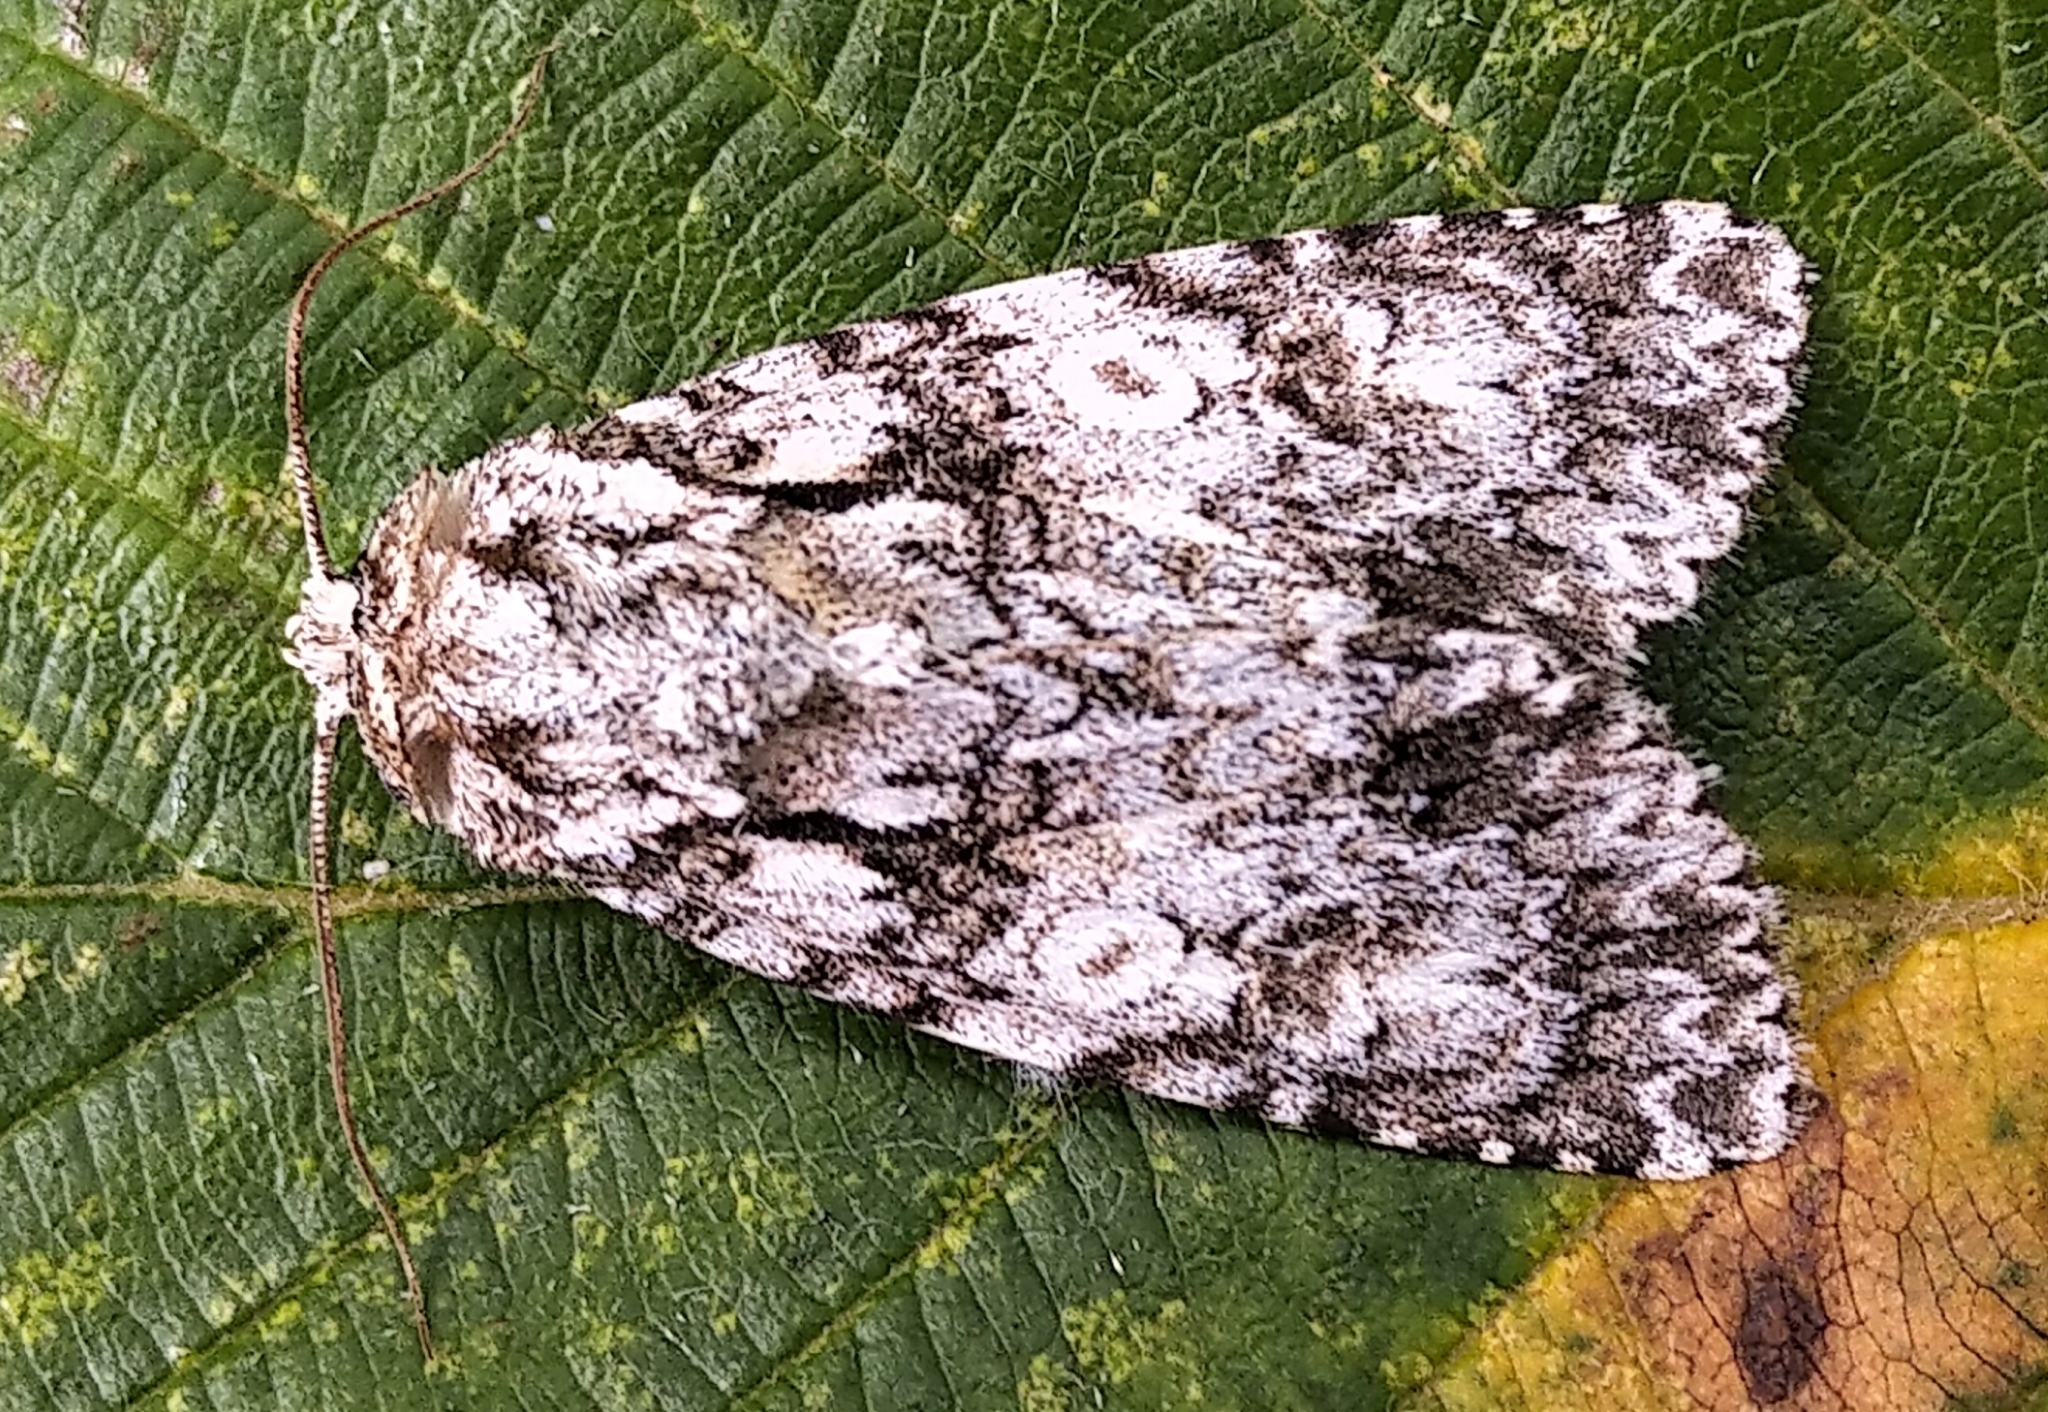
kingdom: Animalia
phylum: Arthropoda
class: Insecta
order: Lepidoptera
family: Noctuidae
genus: Acronicta
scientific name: Acronicta marmorata
